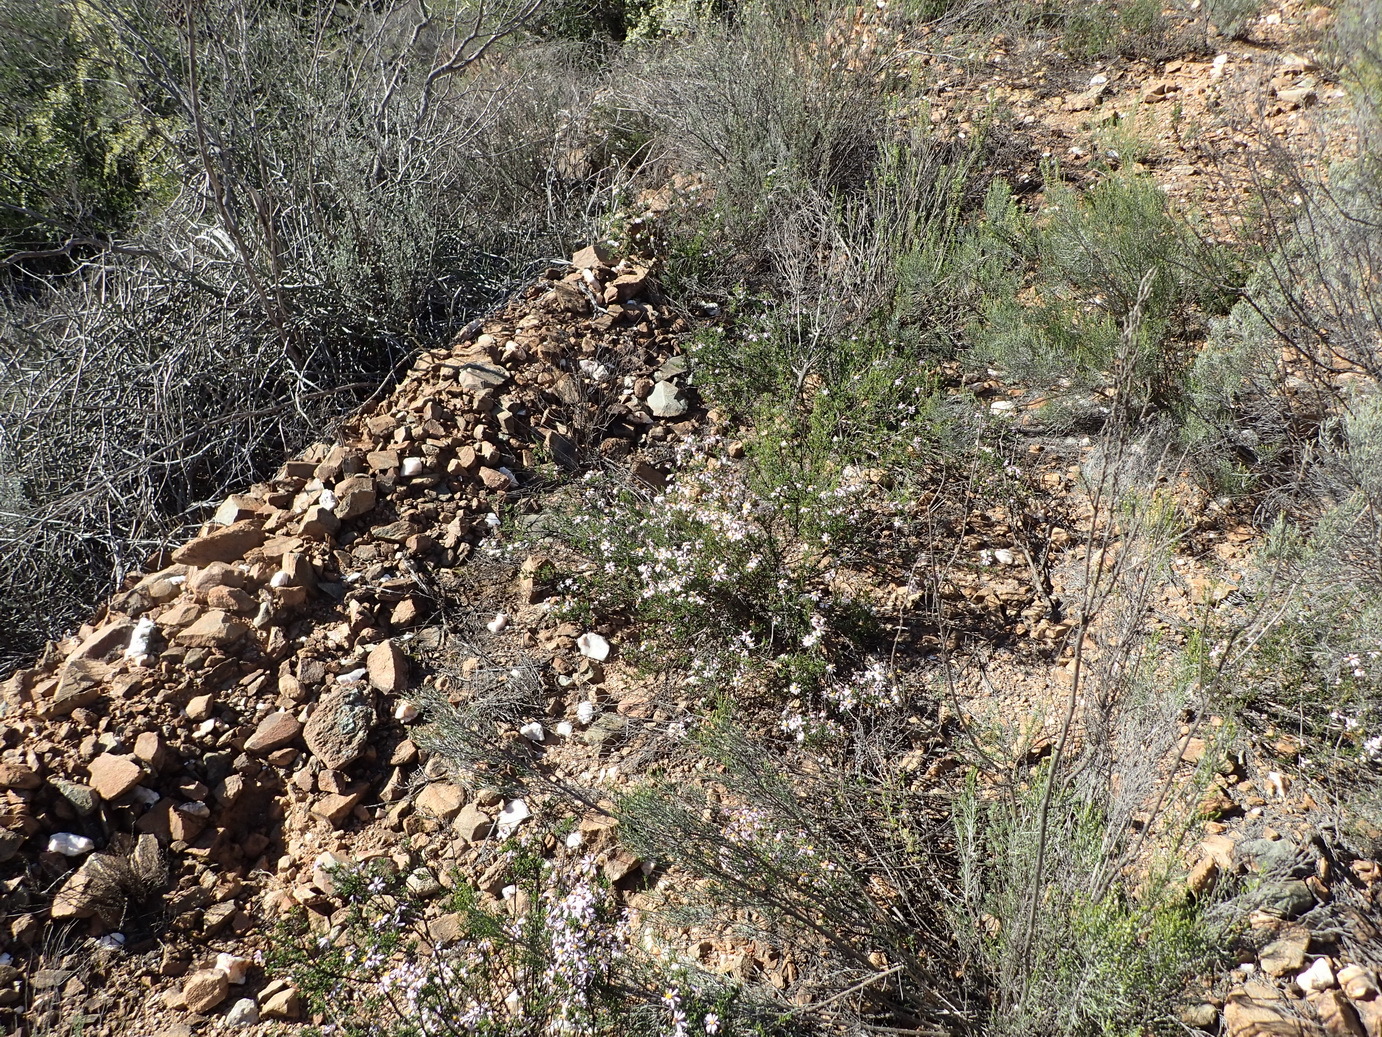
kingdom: Plantae
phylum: Tracheophyta
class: Magnoliopsida
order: Asterales
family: Asteraceae
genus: Felicia
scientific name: Felicia filifolia
